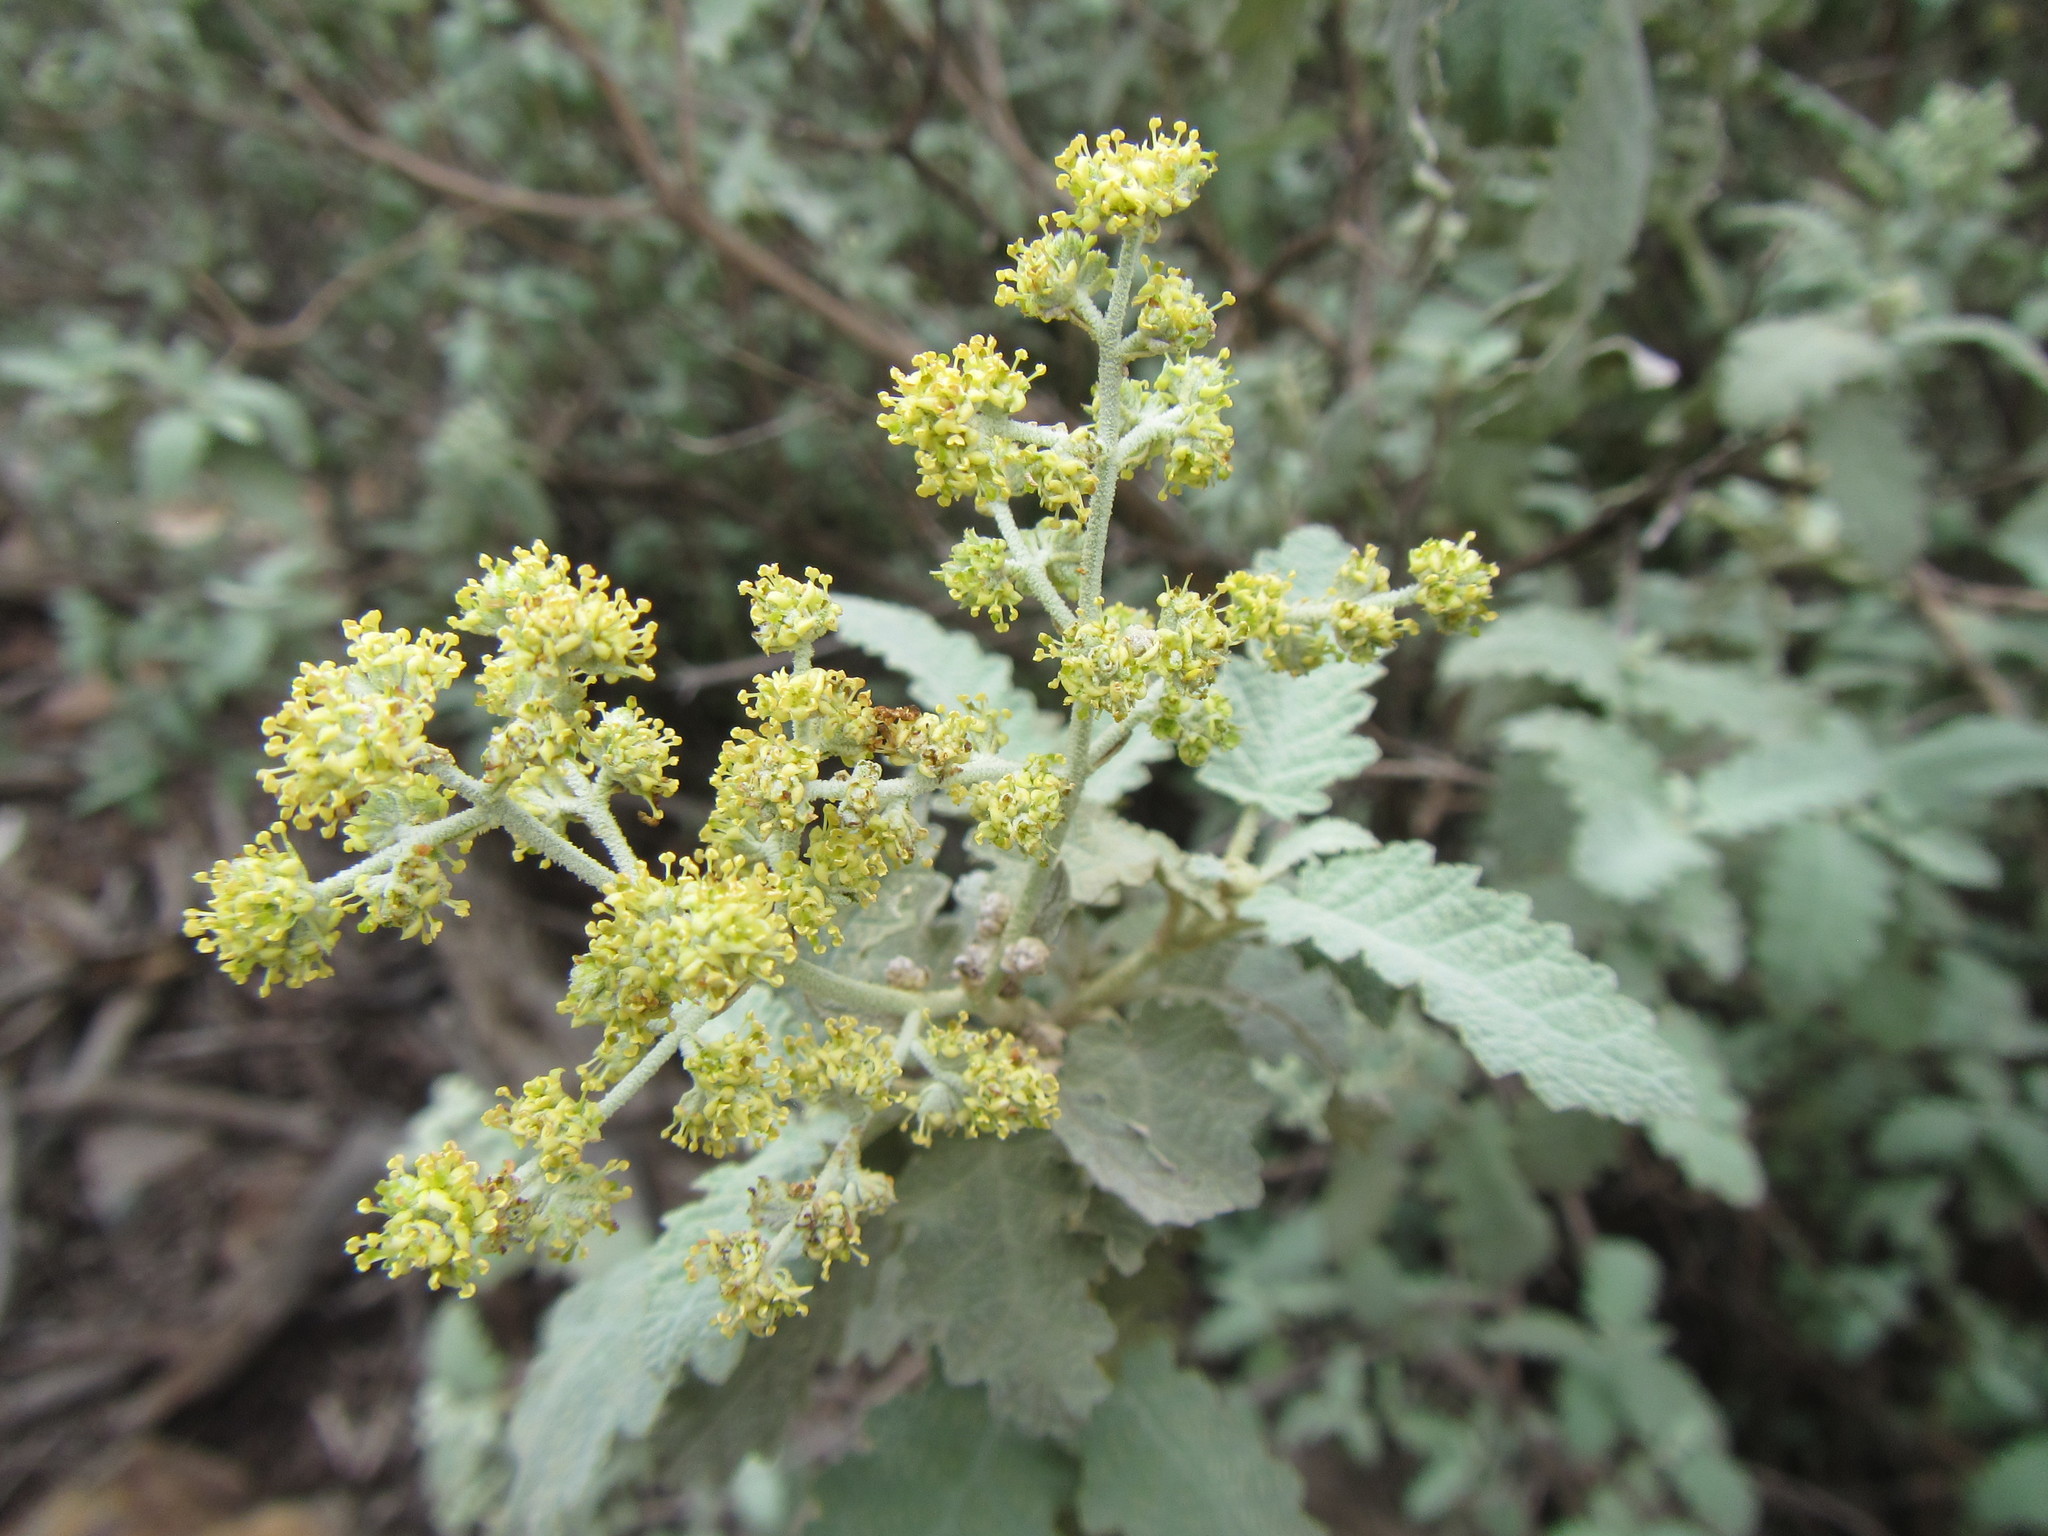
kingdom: Plantae
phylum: Tracheophyta
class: Magnoliopsida
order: Lamiales
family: Scrophulariaceae
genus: Buddleja
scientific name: Buddleja glomerata
